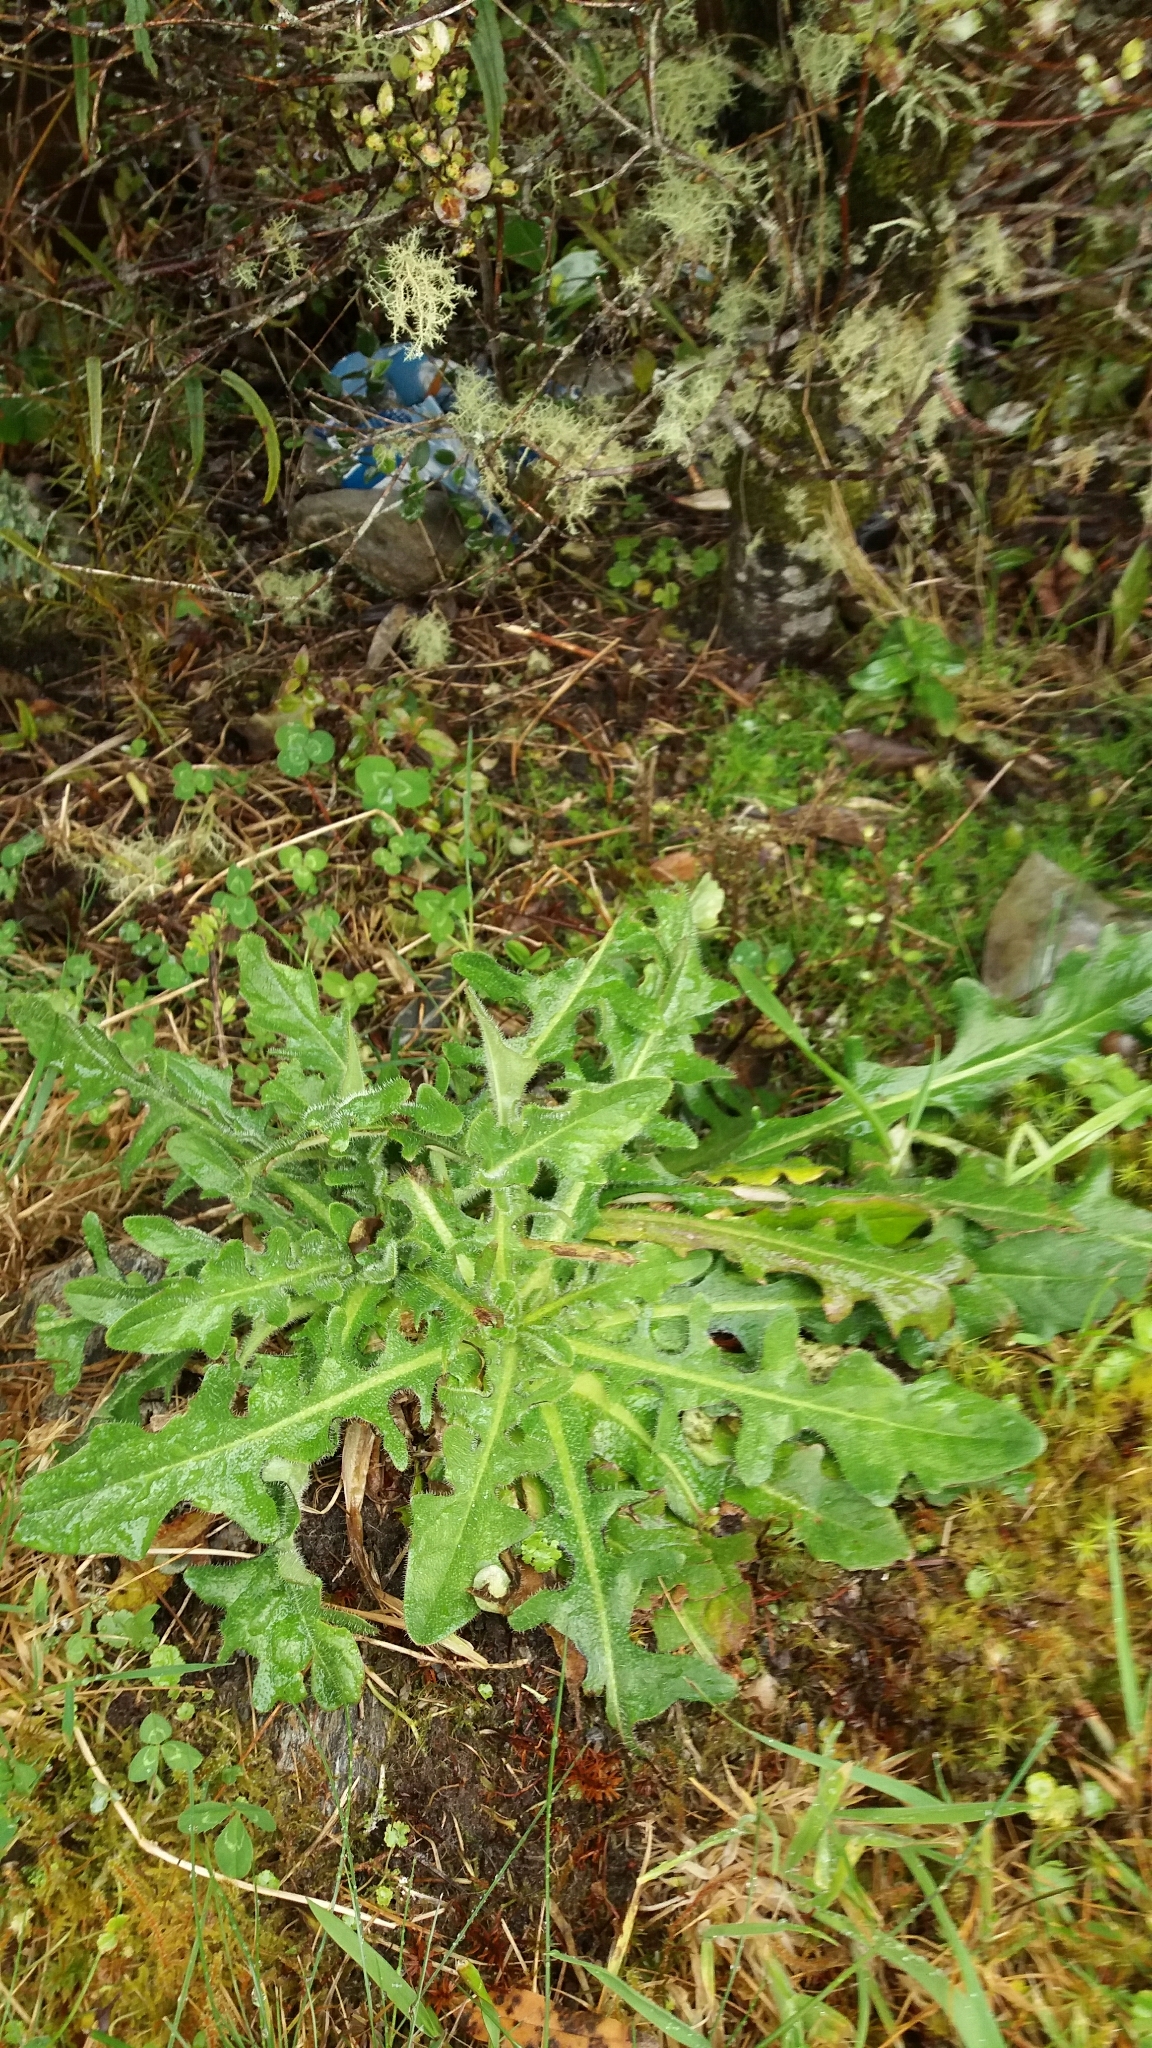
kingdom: Plantae
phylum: Tracheophyta
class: Magnoliopsida
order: Asterales
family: Asteraceae
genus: Hypochaeris
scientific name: Hypochaeris radicata
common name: Flatweed
